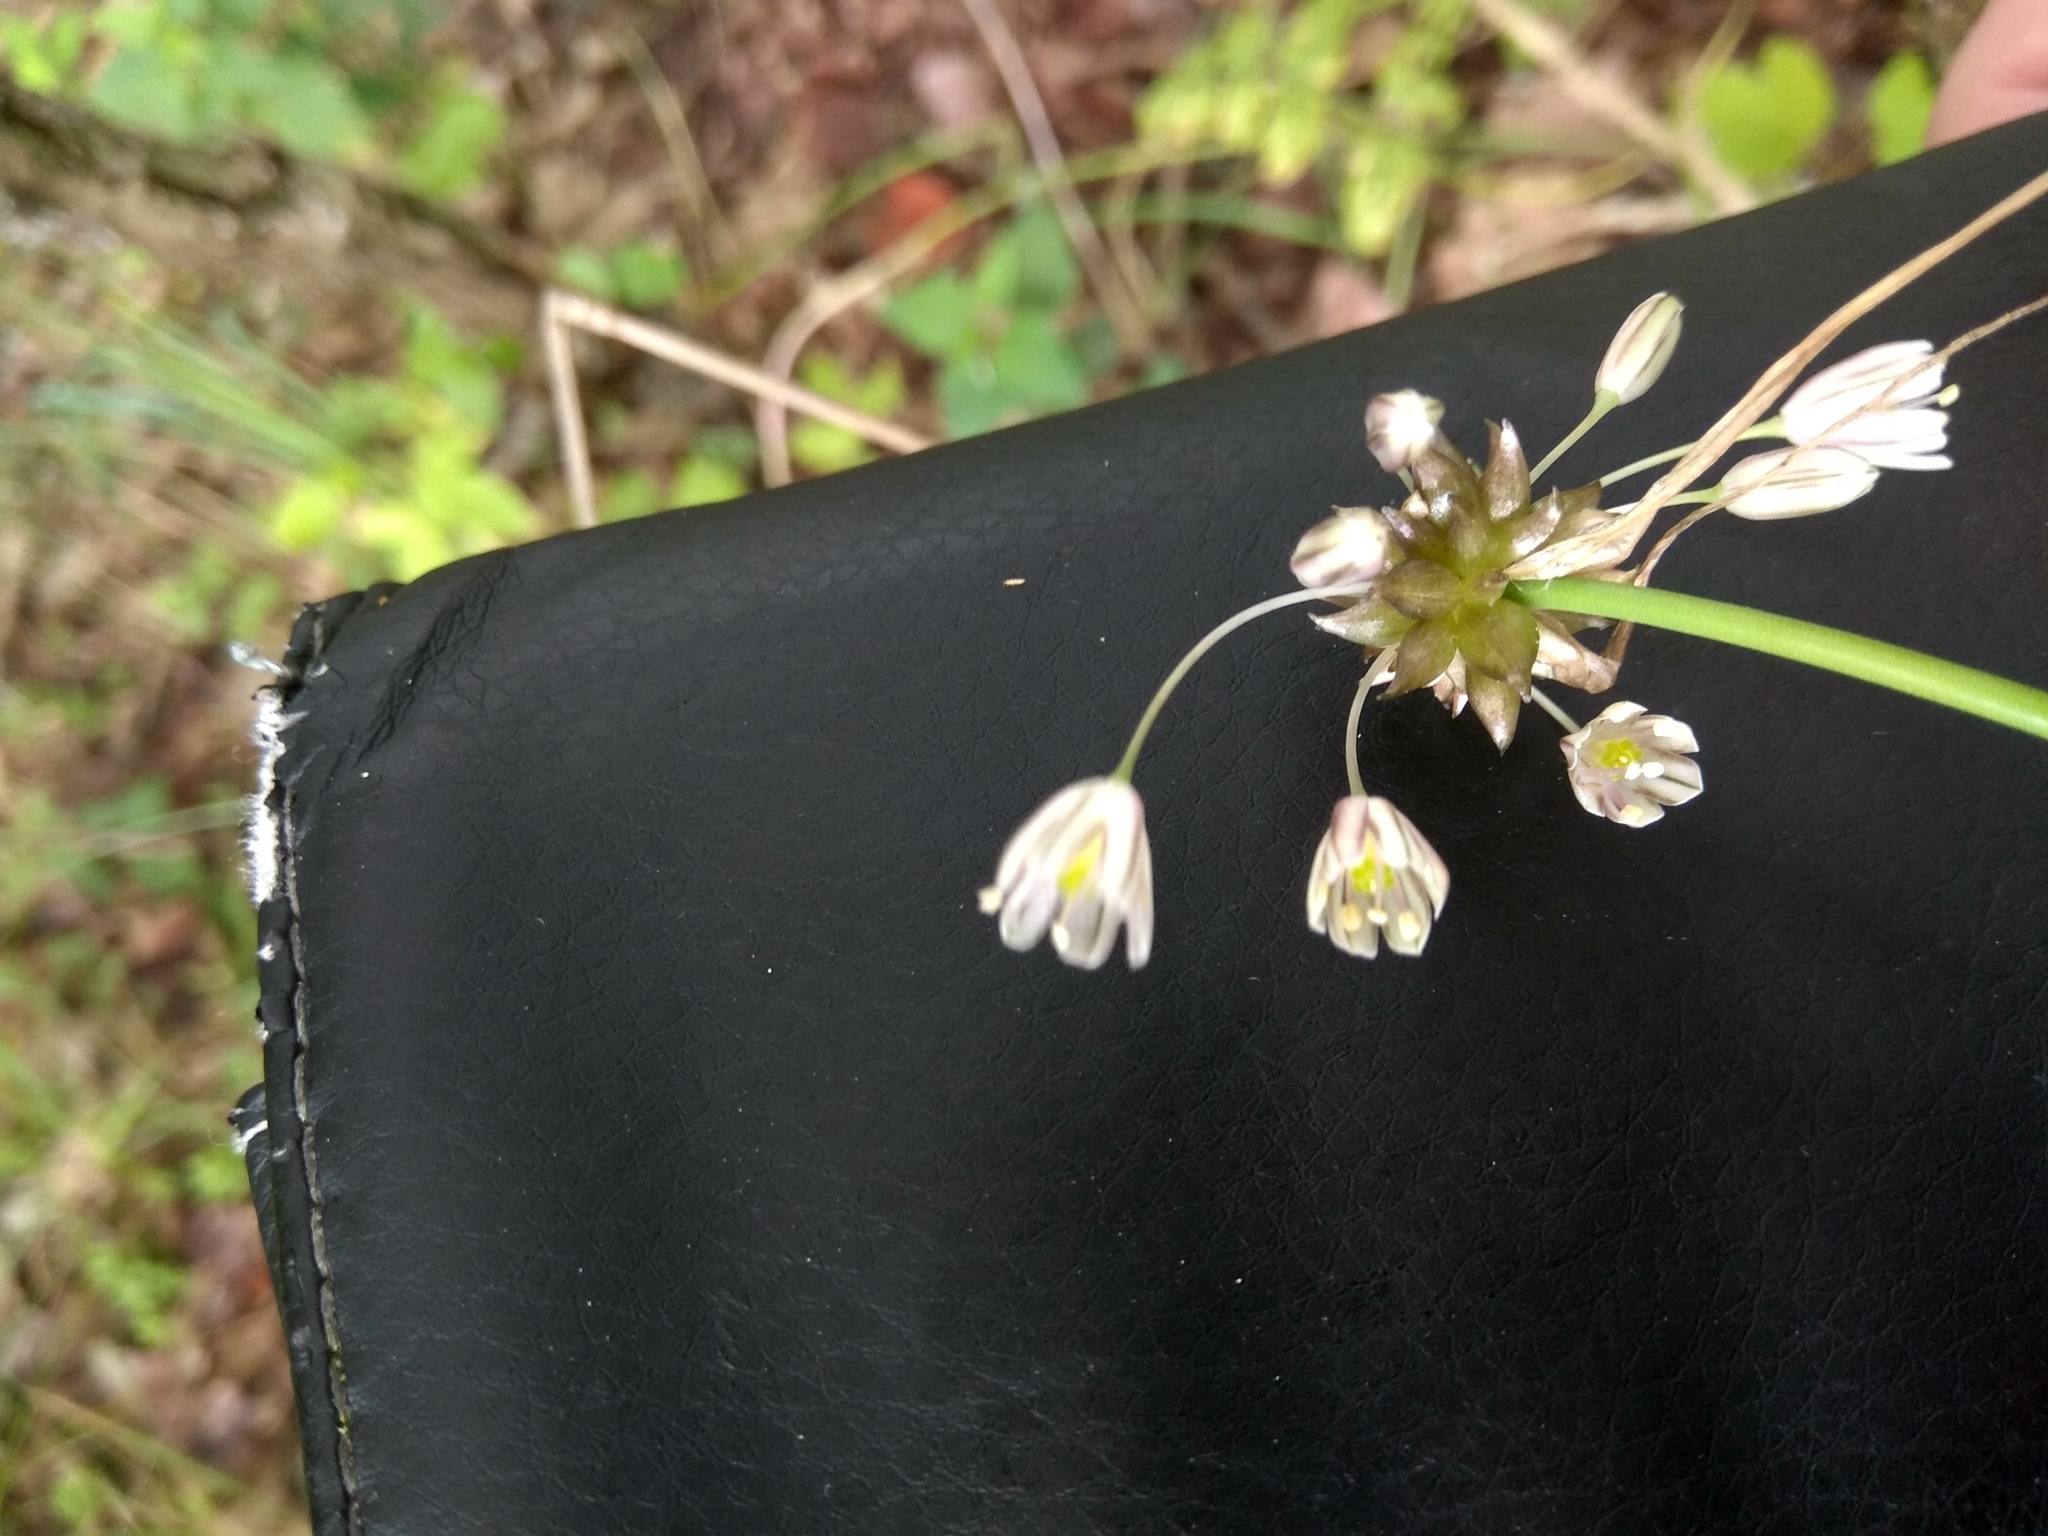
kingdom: Plantae
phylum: Tracheophyta
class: Liliopsida
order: Asparagales
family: Amaryllidaceae
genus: Allium
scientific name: Allium oleraceum
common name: Field garlic
